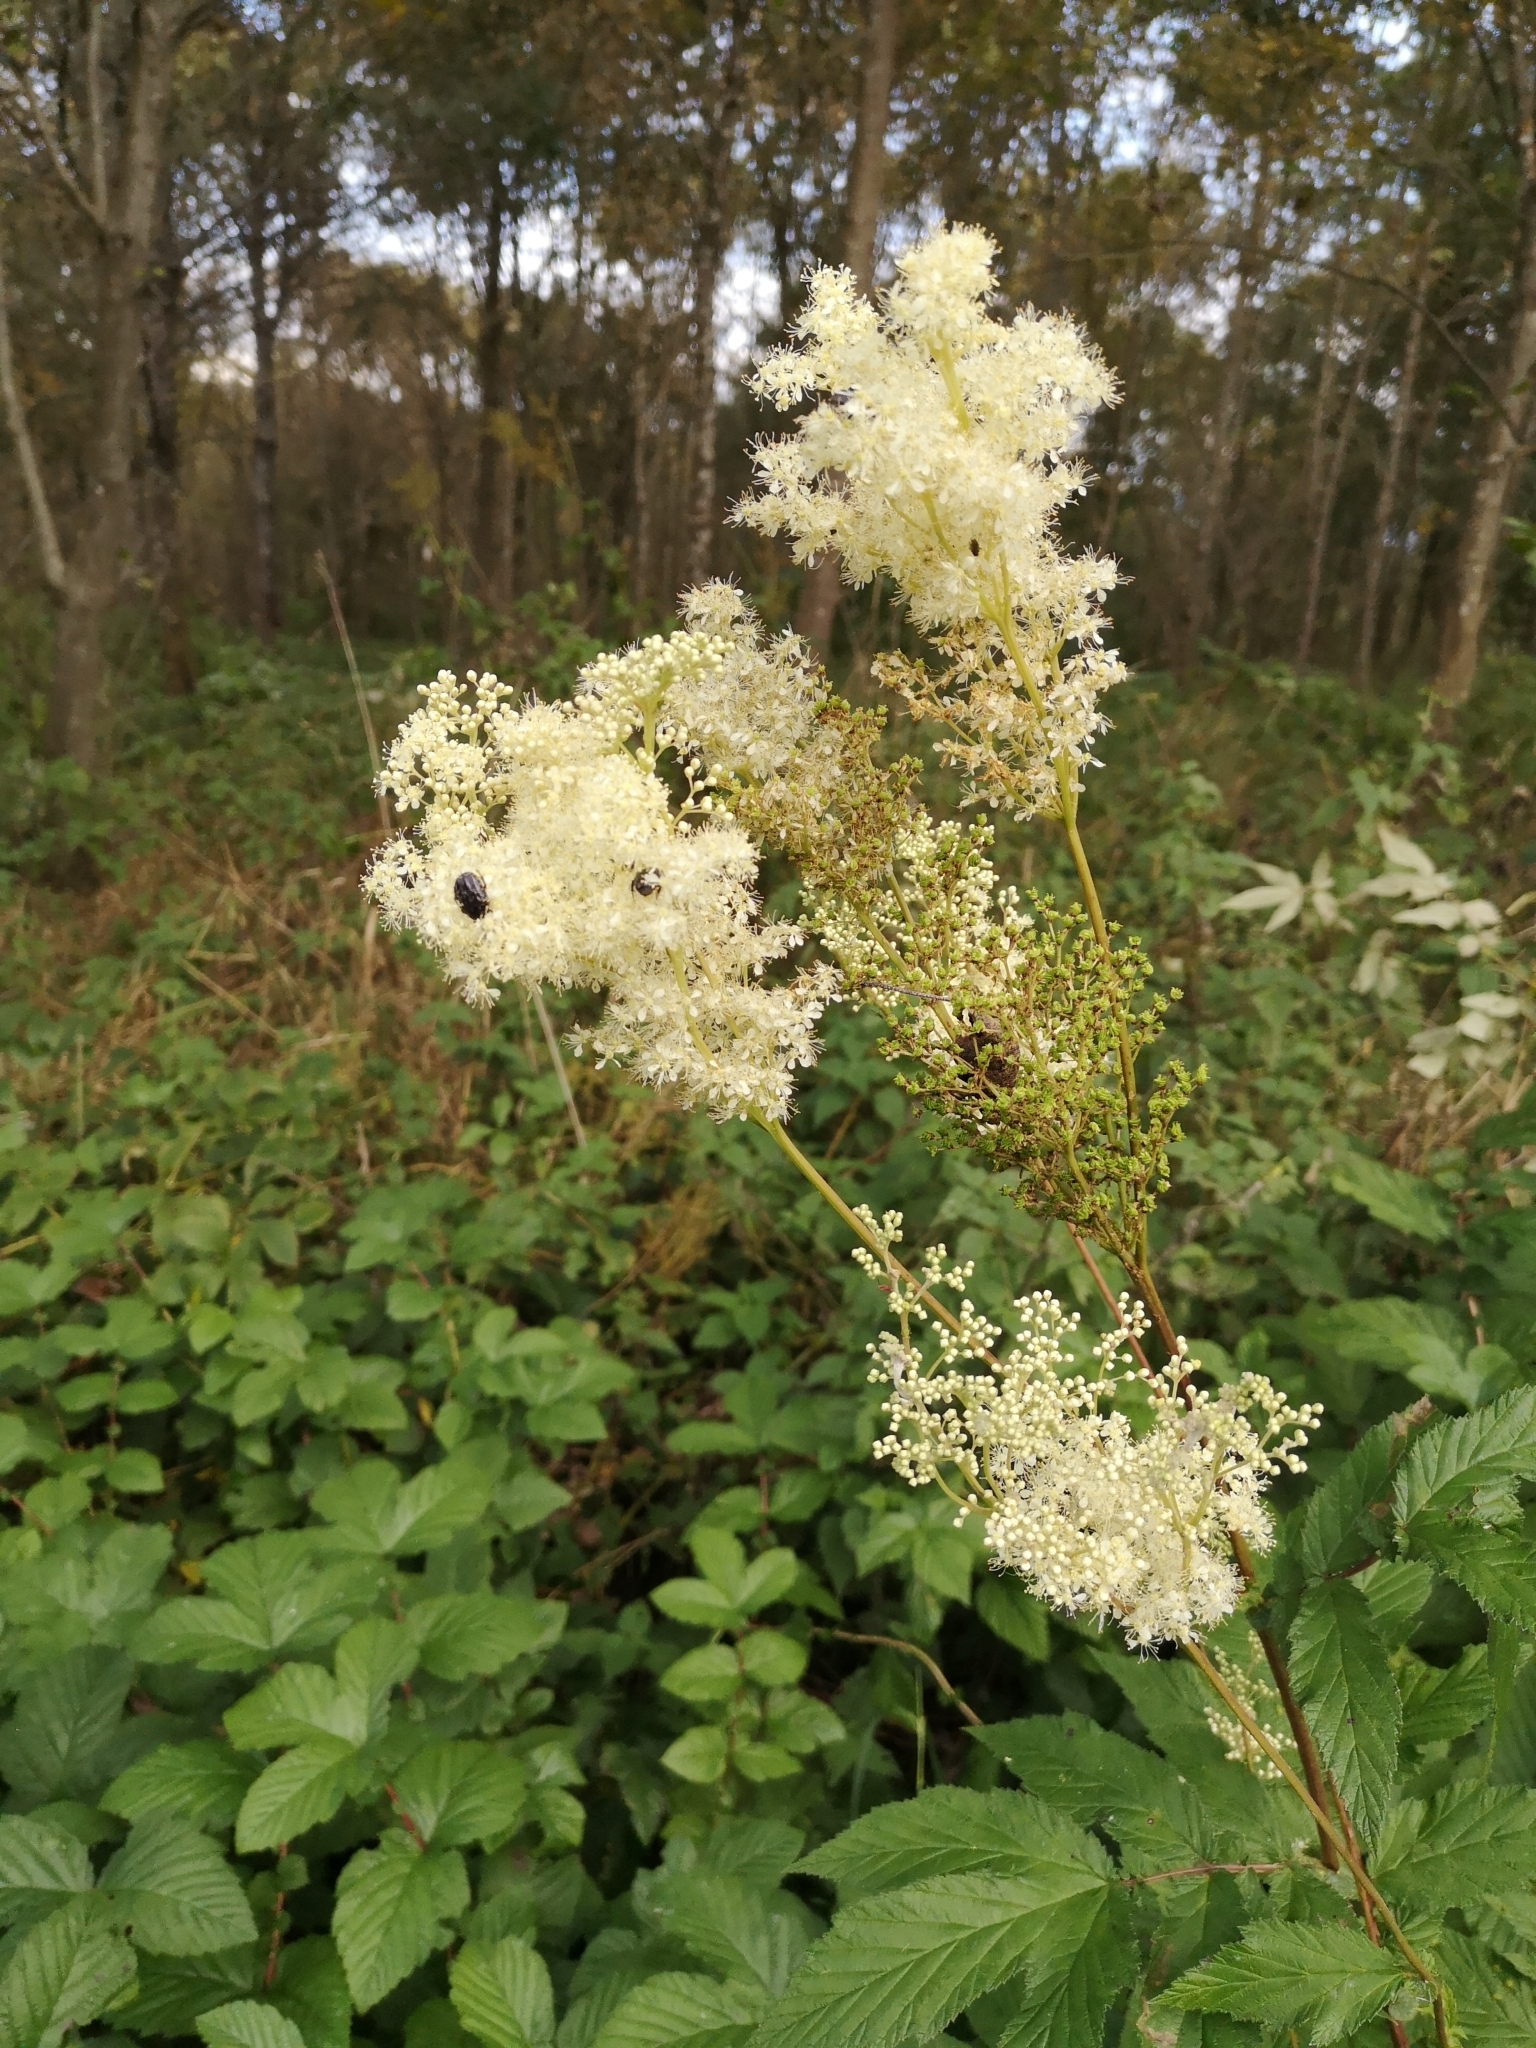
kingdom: Plantae
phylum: Tracheophyta
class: Magnoliopsida
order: Rosales
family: Rosaceae
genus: Filipendula
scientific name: Filipendula ulmaria
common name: Meadowsweet
